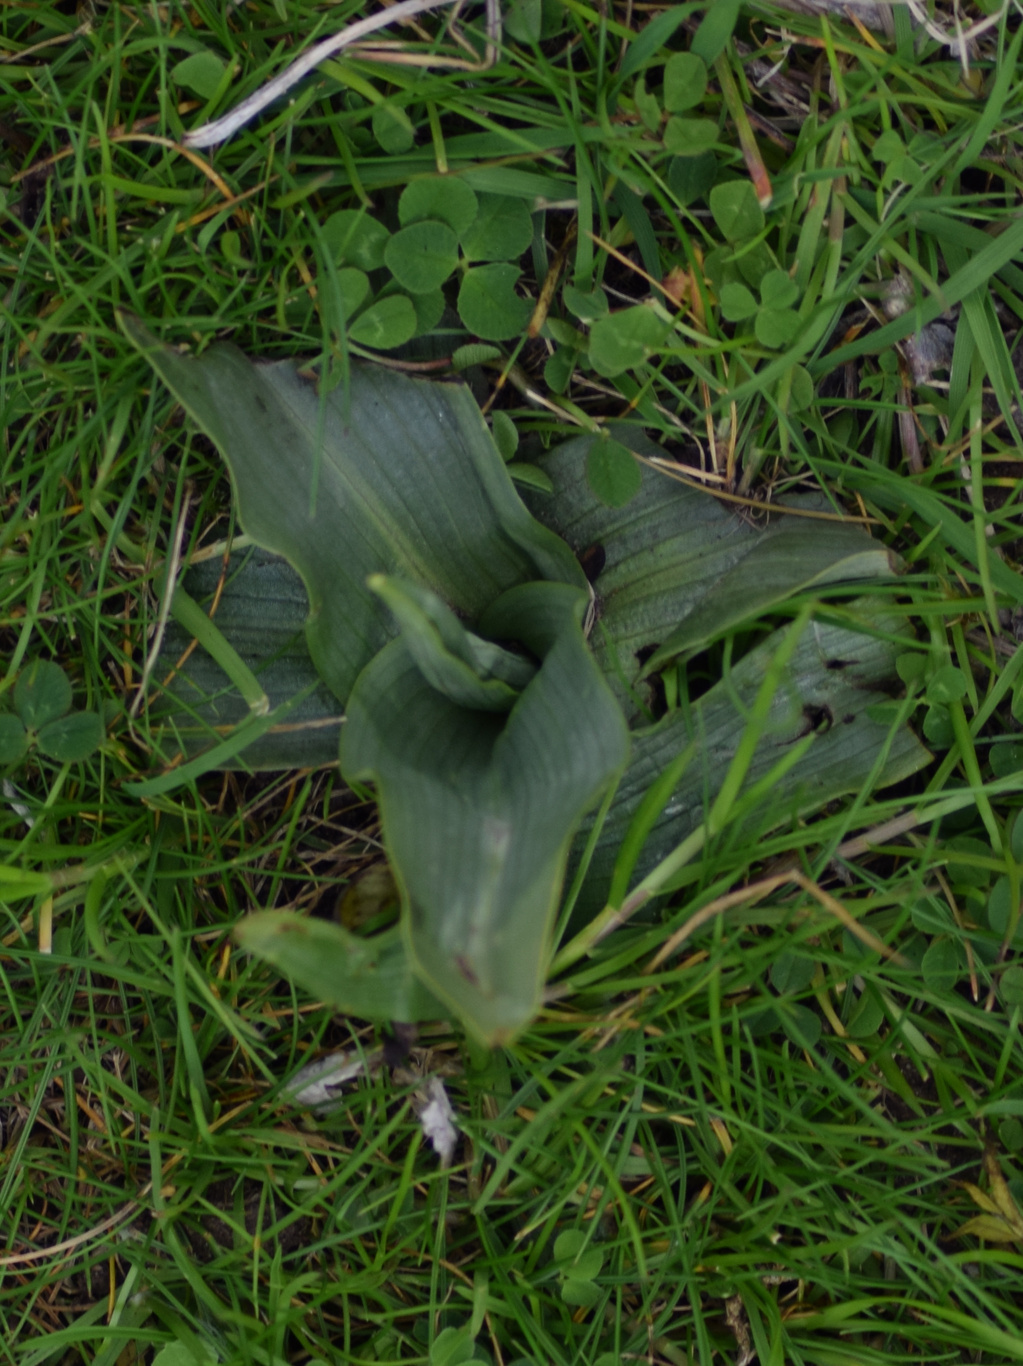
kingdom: Plantae
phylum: Tracheophyta
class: Liliopsida
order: Asparagales
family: Orchidaceae
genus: Ophrys
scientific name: Ophrys apifera
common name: Bee orchid
